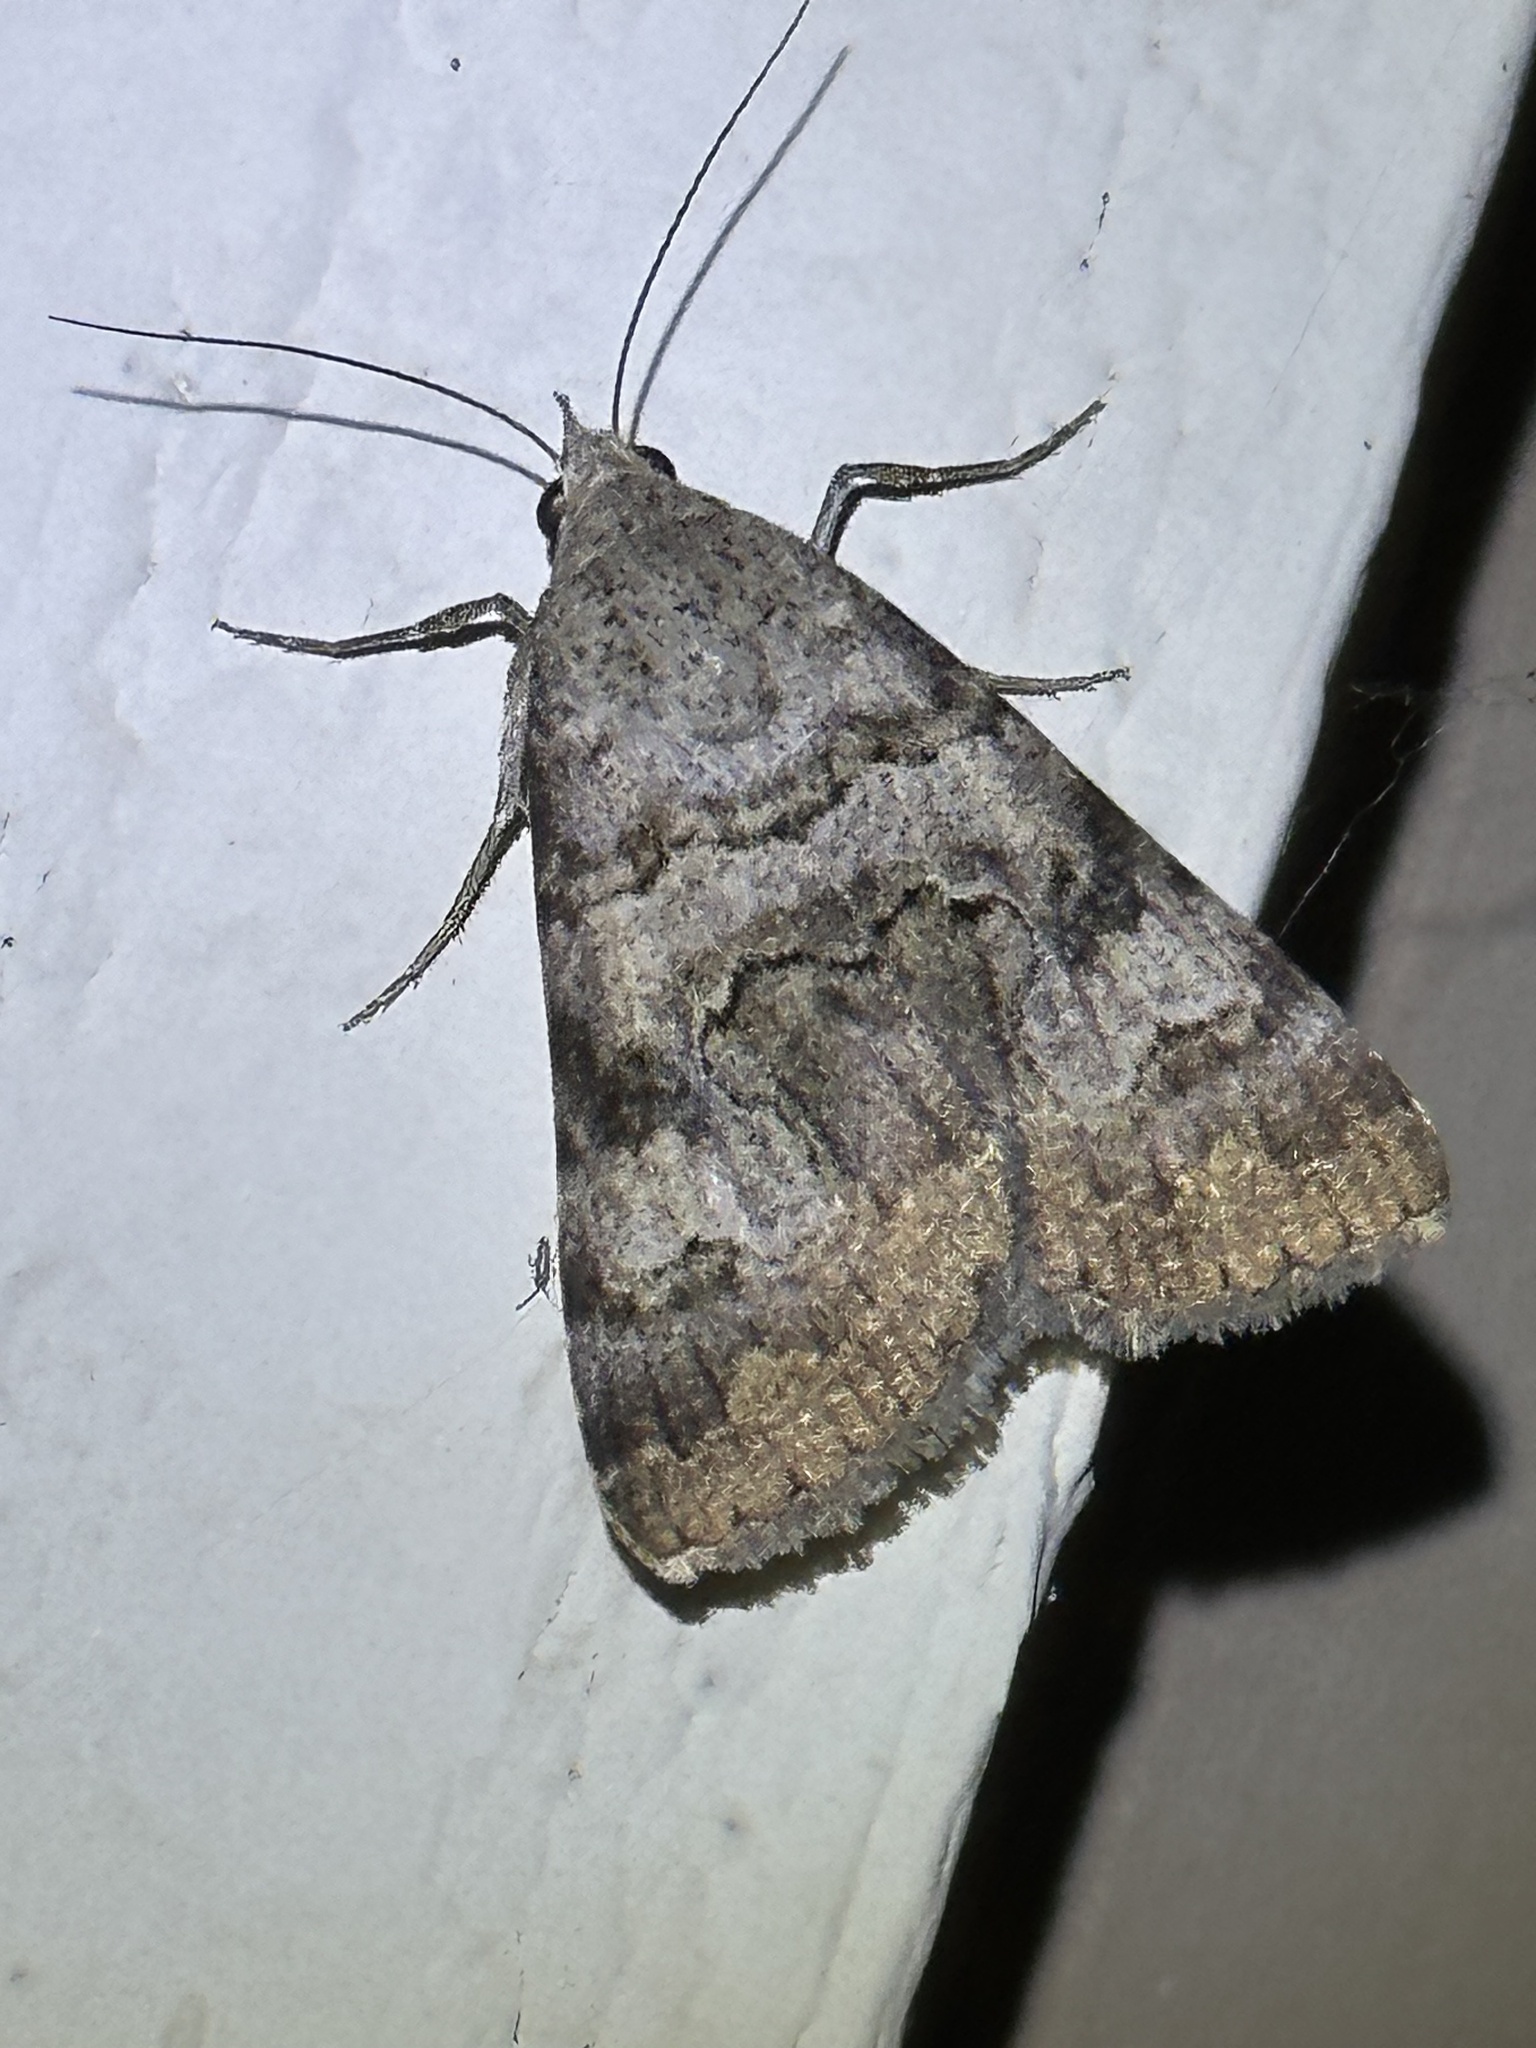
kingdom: Animalia
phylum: Arthropoda
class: Insecta
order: Lepidoptera
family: Erebidae
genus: Bulia
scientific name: Bulia deducta
